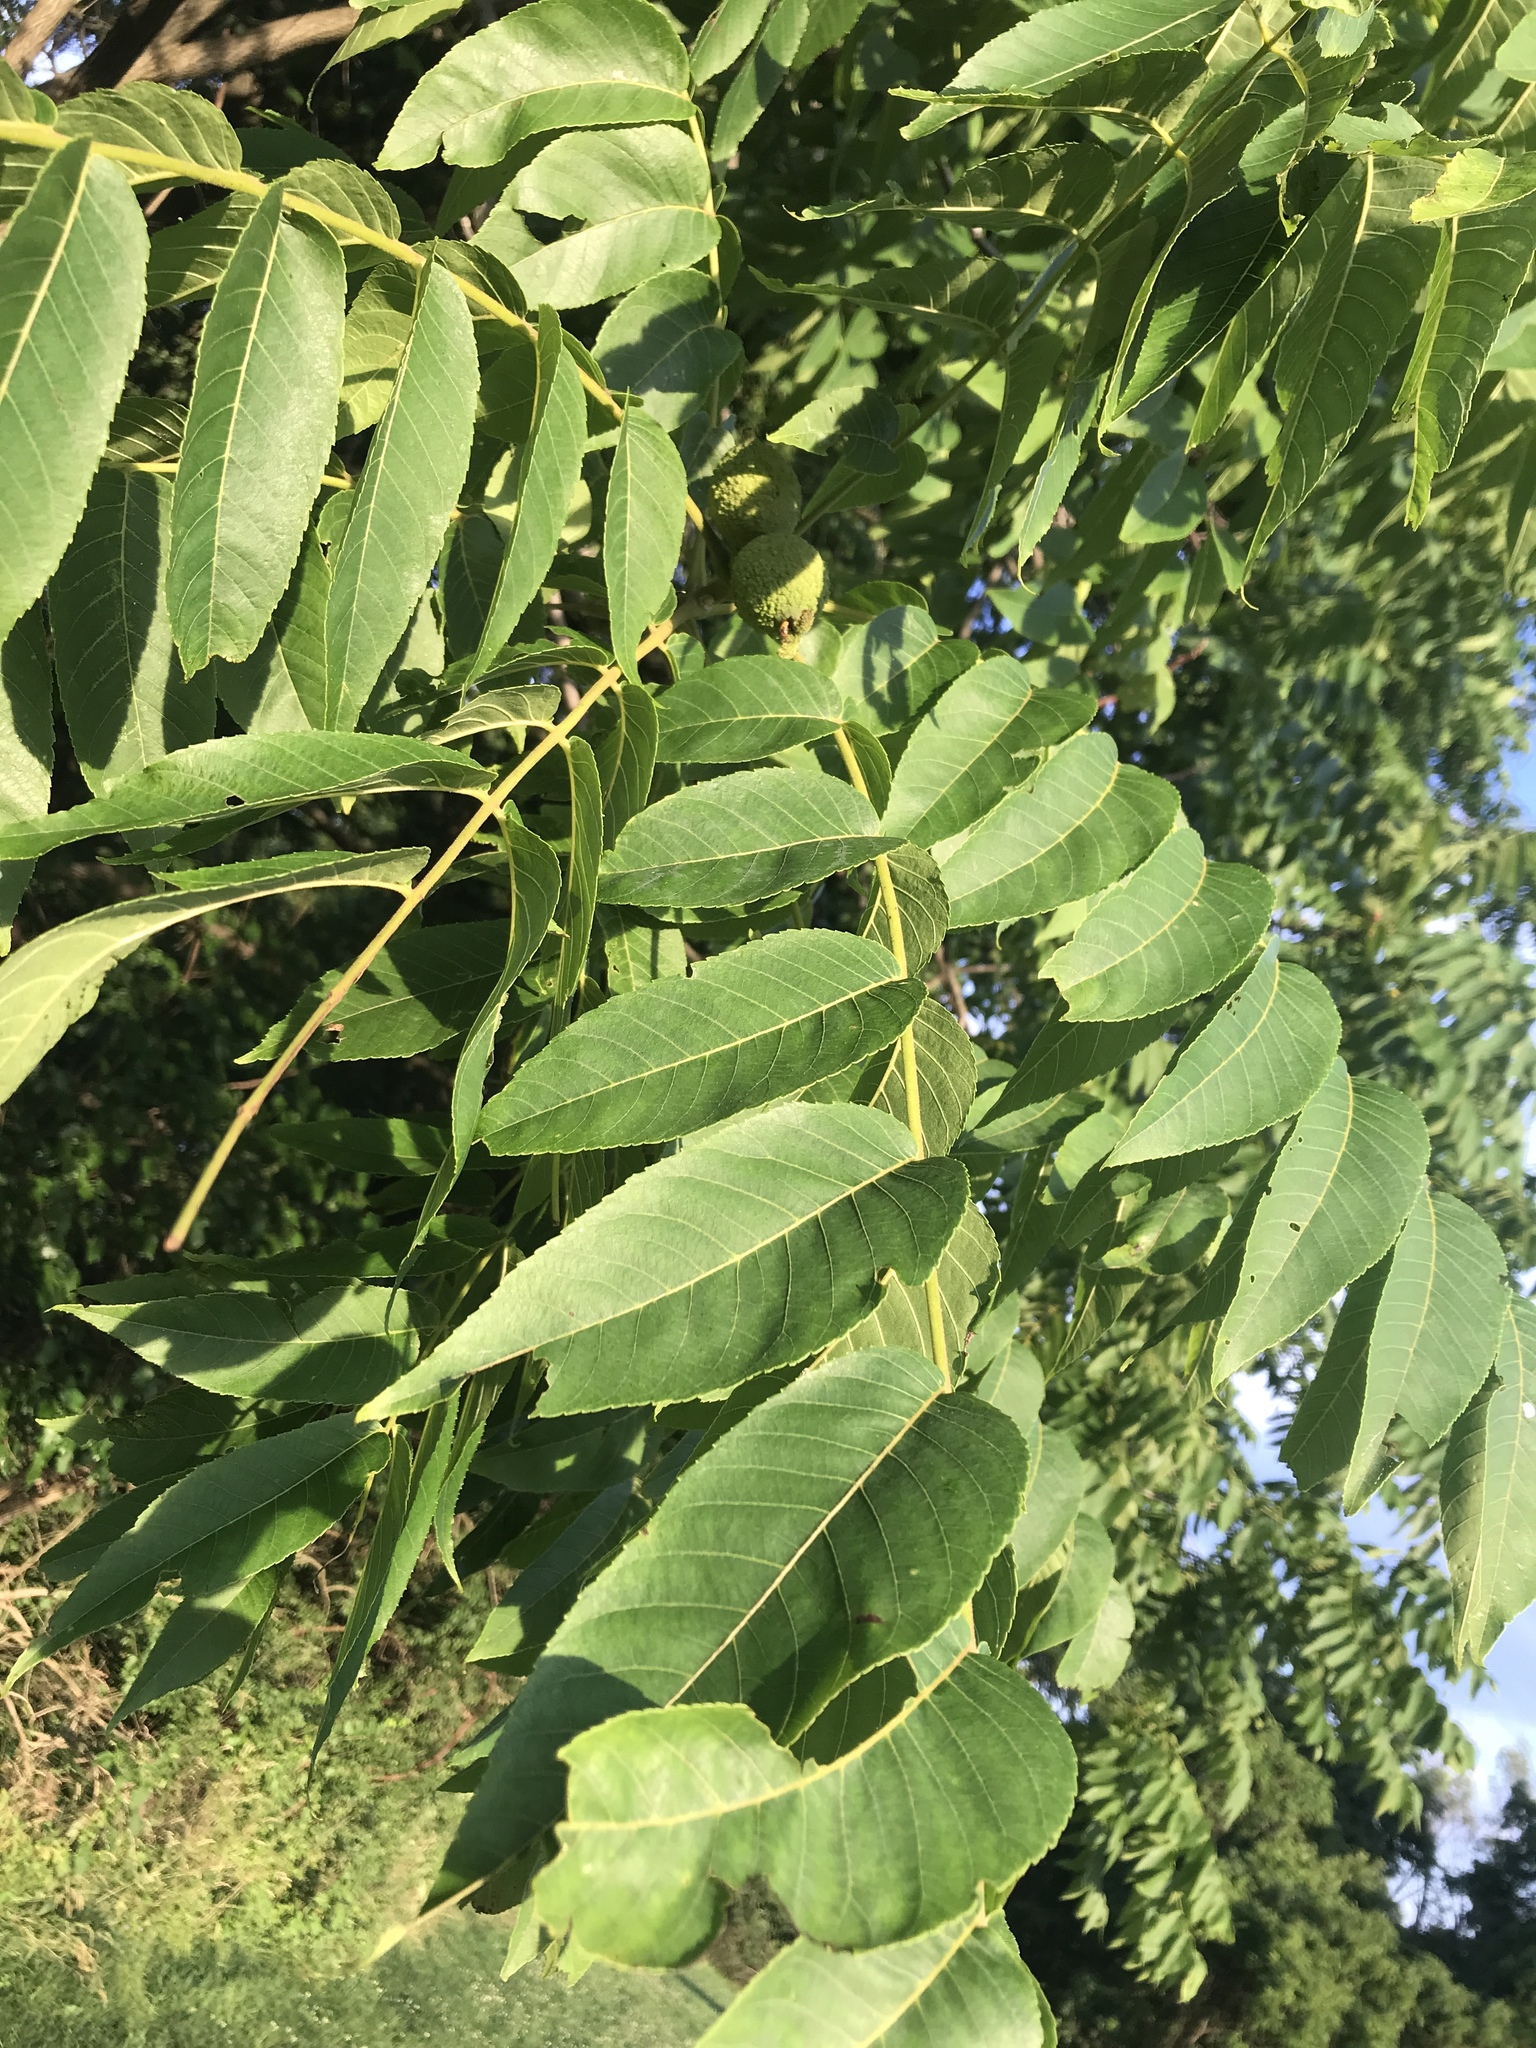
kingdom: Plantae
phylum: Tracheophyta
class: Magnoliopsida
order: Fagales
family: Juglandaceae
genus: Juglans
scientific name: Juglans nigra
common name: Black walnut
